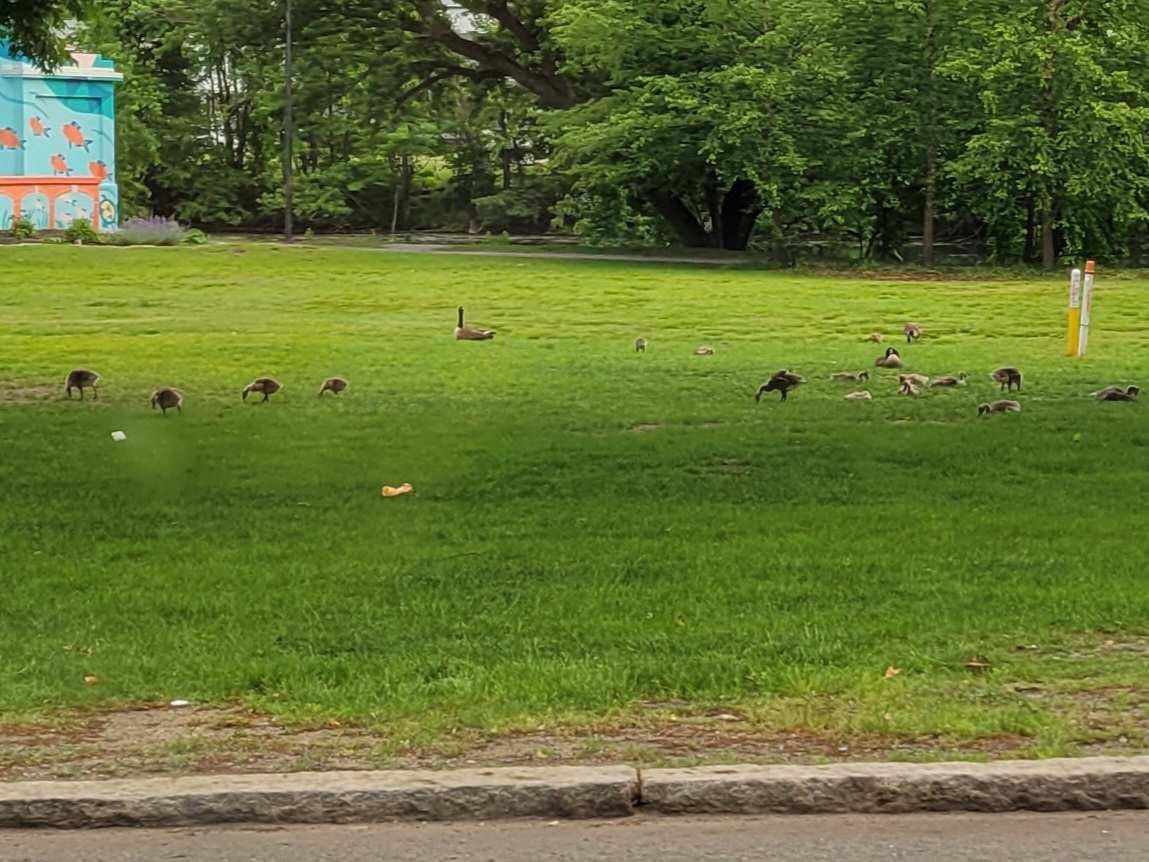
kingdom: Animalia
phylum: Chordata
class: Aves
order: Anseriformes
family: Anatidae
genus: Branta
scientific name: Branta canadensis
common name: Canada goose
